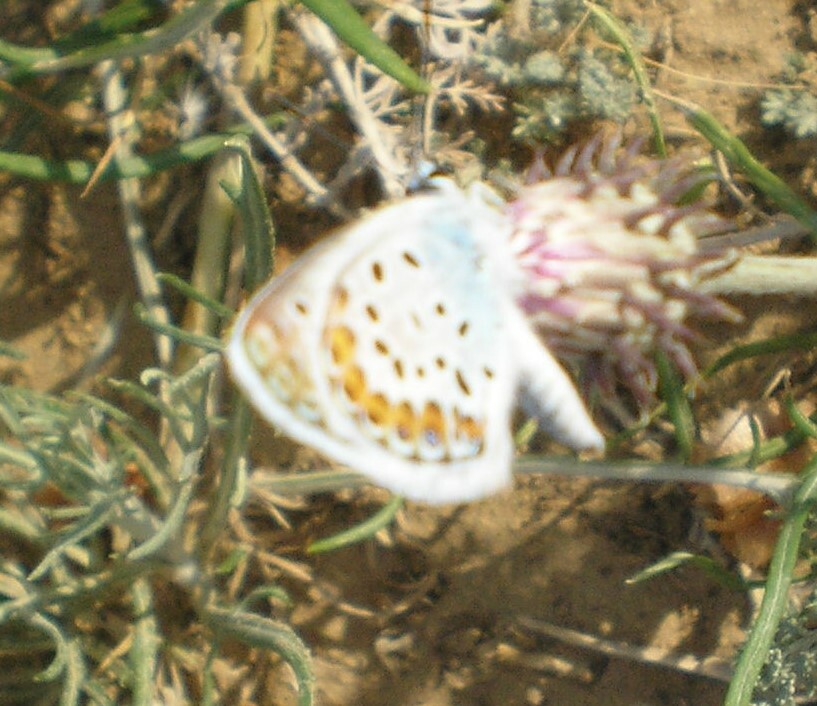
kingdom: Animalia
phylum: Arthropoda
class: Insecta
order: Lepidoptera
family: Lycaenidae
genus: Plebejus
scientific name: Plebejus argus
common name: Silver-studded blue
